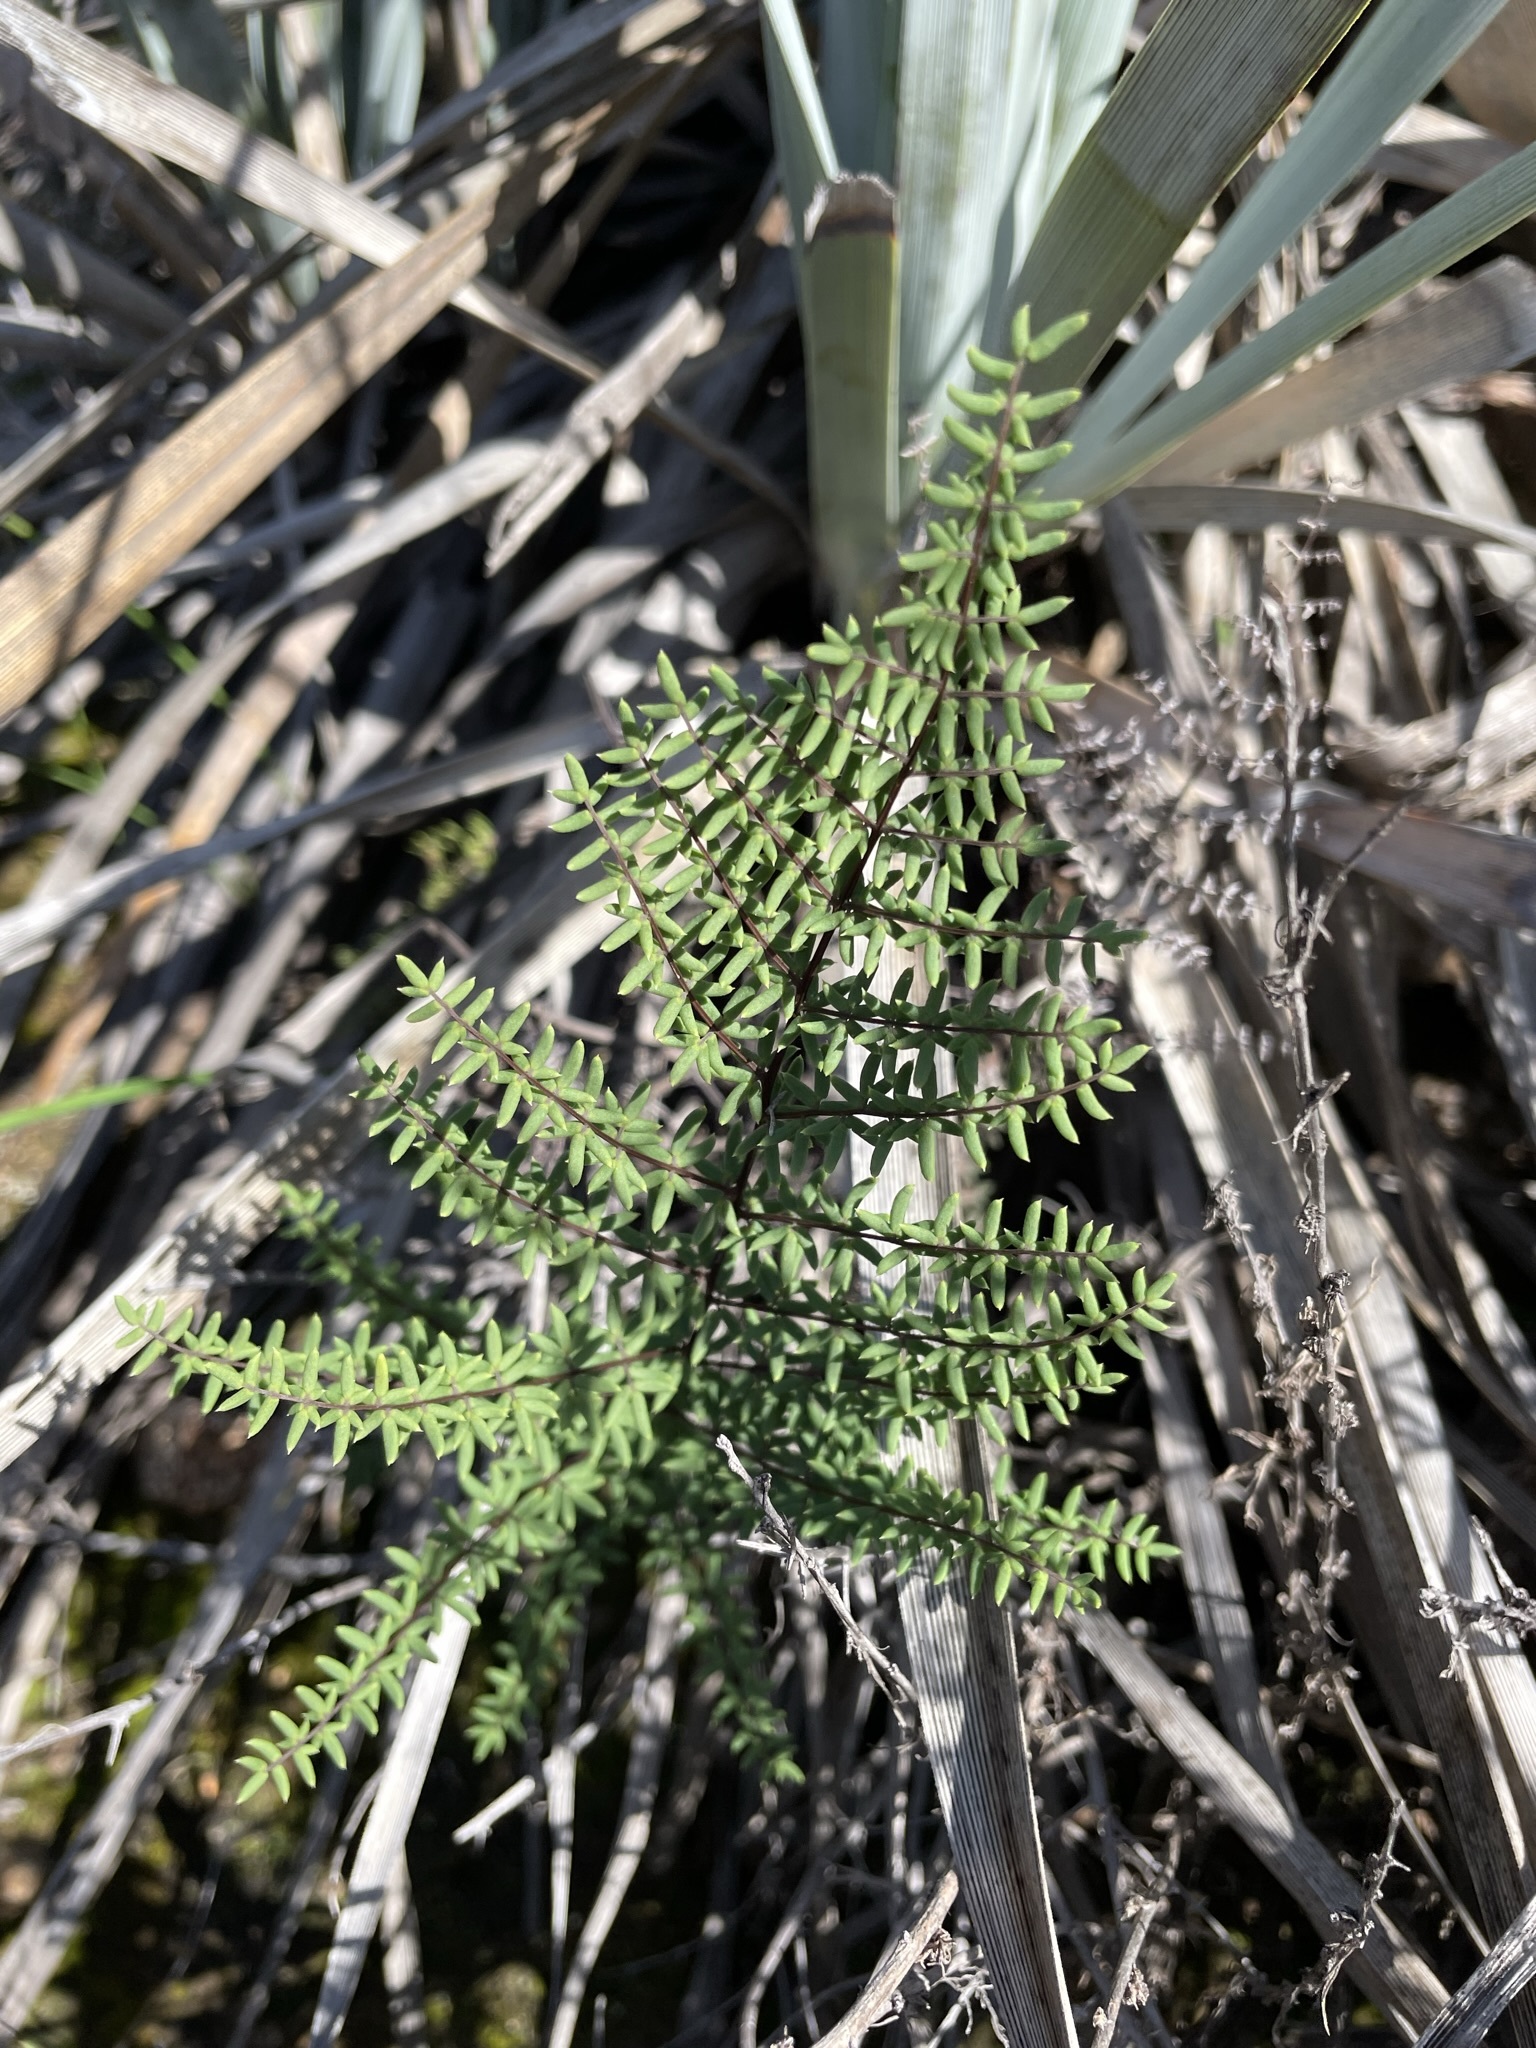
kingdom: Plantae
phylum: Tracheophyta
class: Polypodiopsida
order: Polypodiales
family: Pteridaceae
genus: Pellaea
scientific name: Pellaea mucronata
